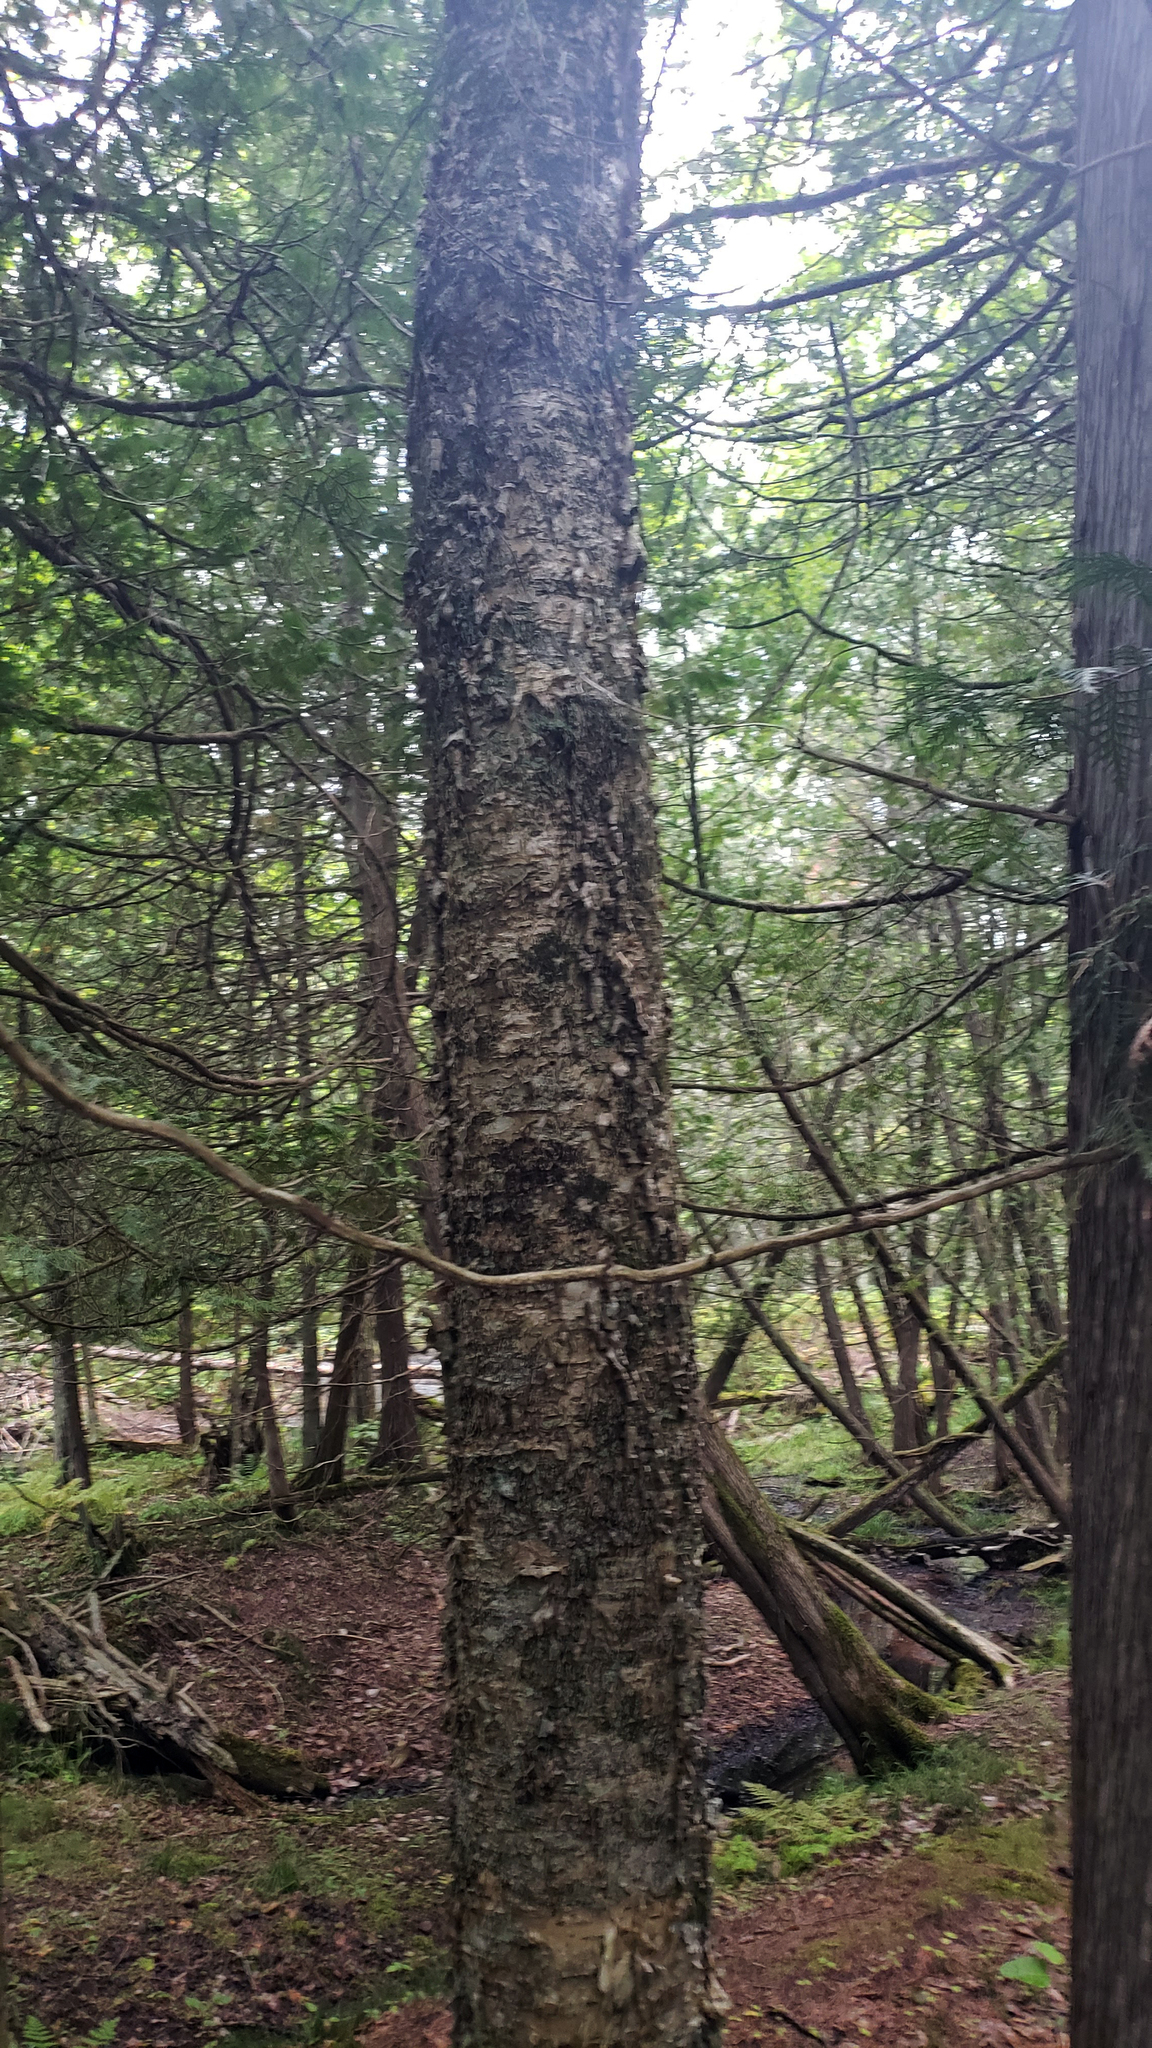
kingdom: Plantae
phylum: Tracheophyta
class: Magnoliopsida
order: Fagales
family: Betulaceae
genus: Betula
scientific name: Betula alleghaniensis
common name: Yellow birch
